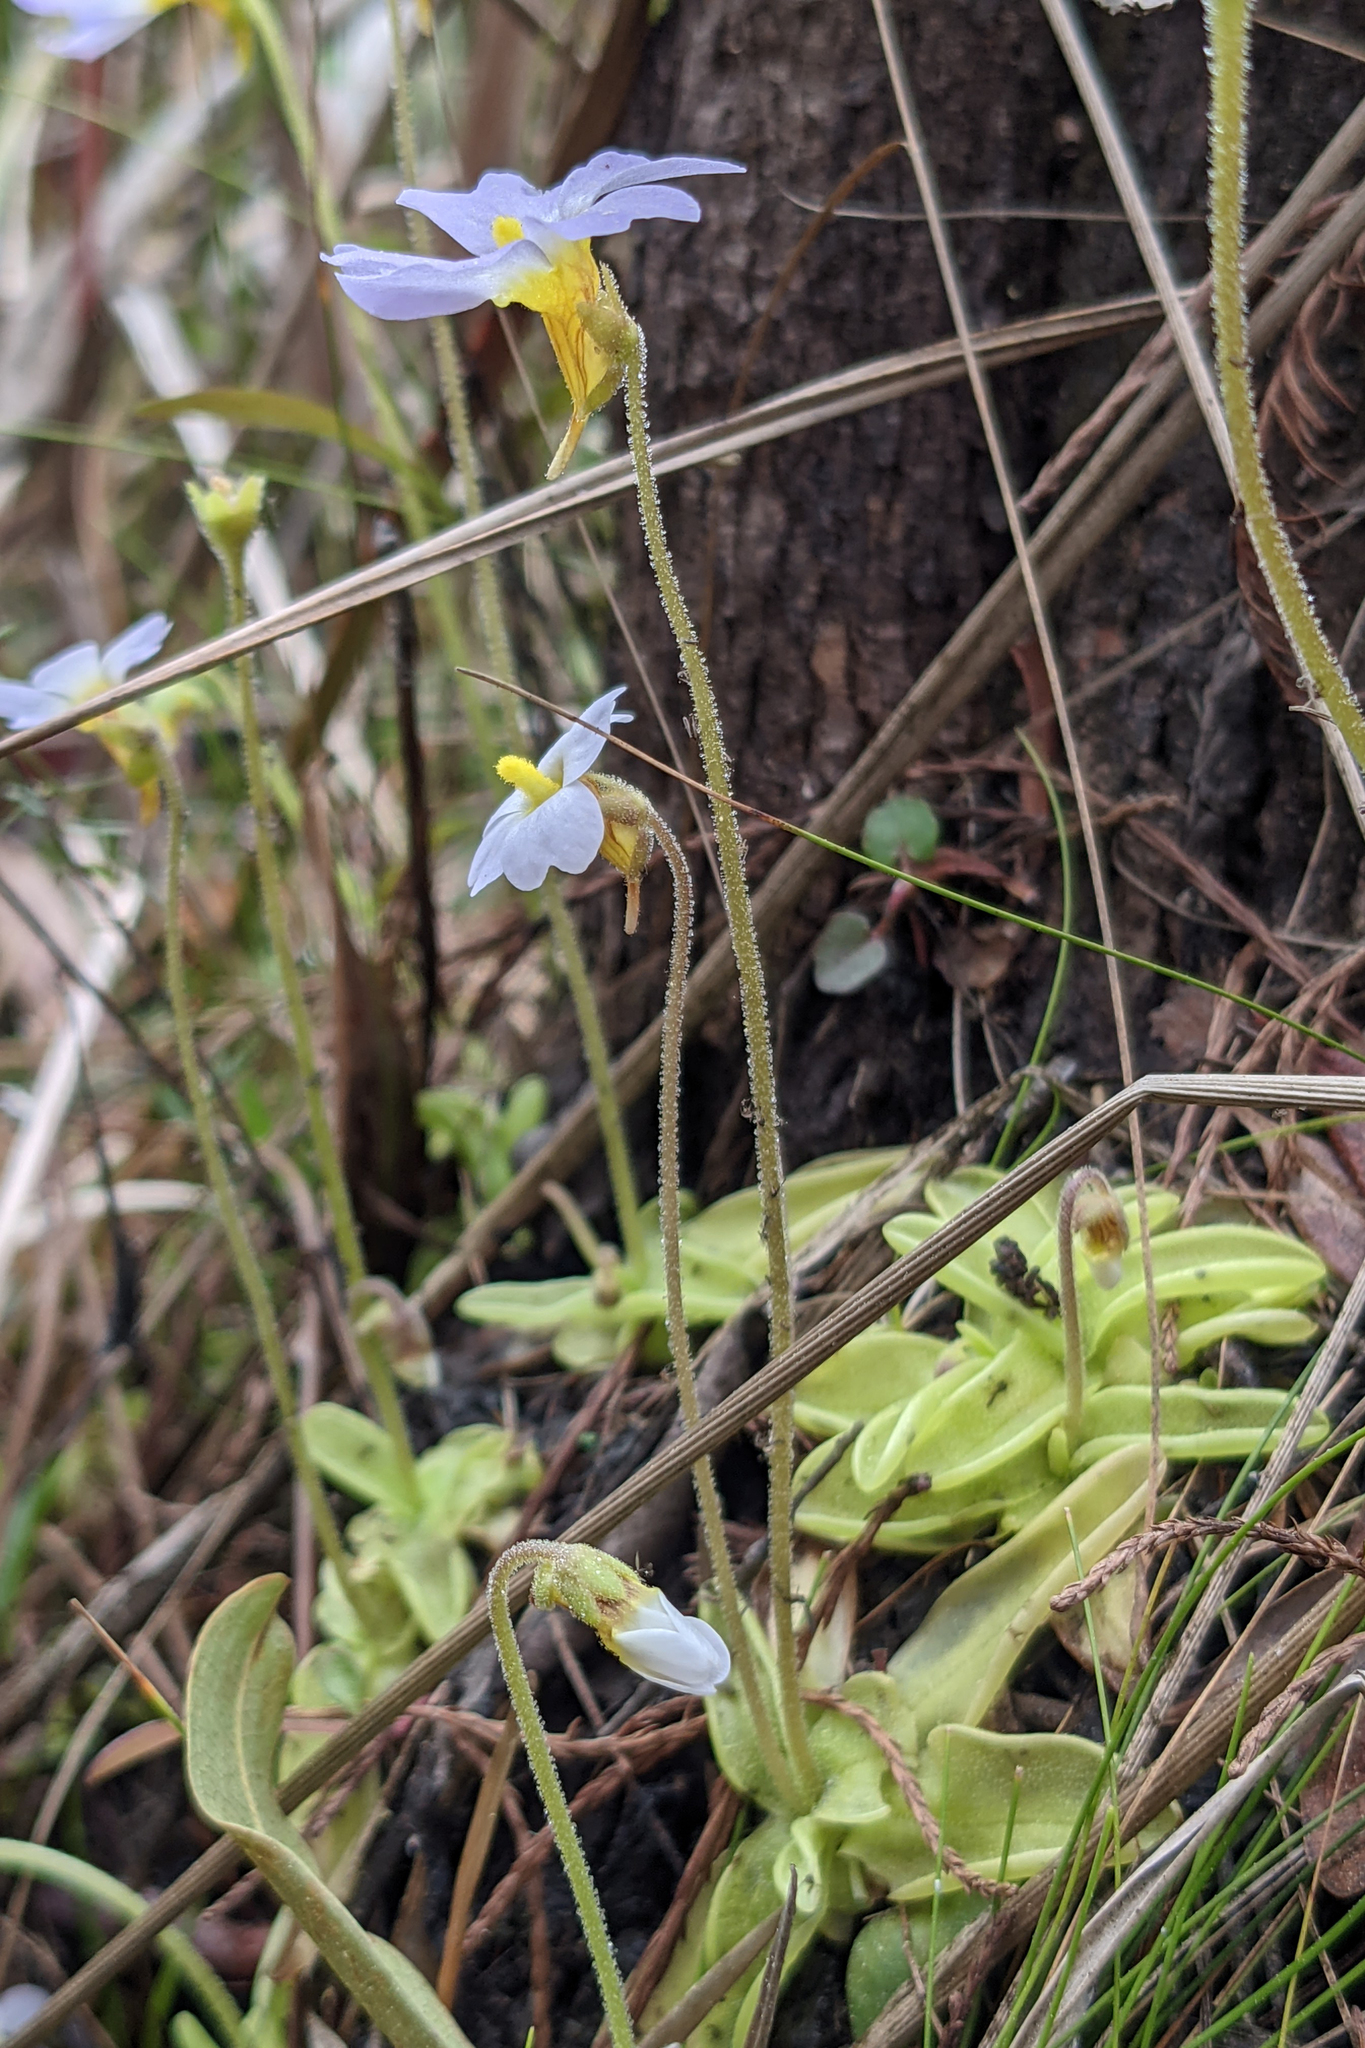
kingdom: Plantae
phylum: Tracheophyta
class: Magnoliopsida
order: Lamiales
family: Lentibulariaceae
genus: Pinguicula
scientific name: Pinguicula primuliflora
